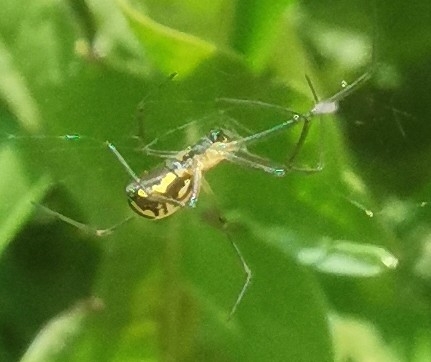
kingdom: Animalia
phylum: Arthropoda
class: Arachnida
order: Araneae
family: Linyphiidae
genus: Neriene
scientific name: Neriene radiata
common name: Filmy dome spider
